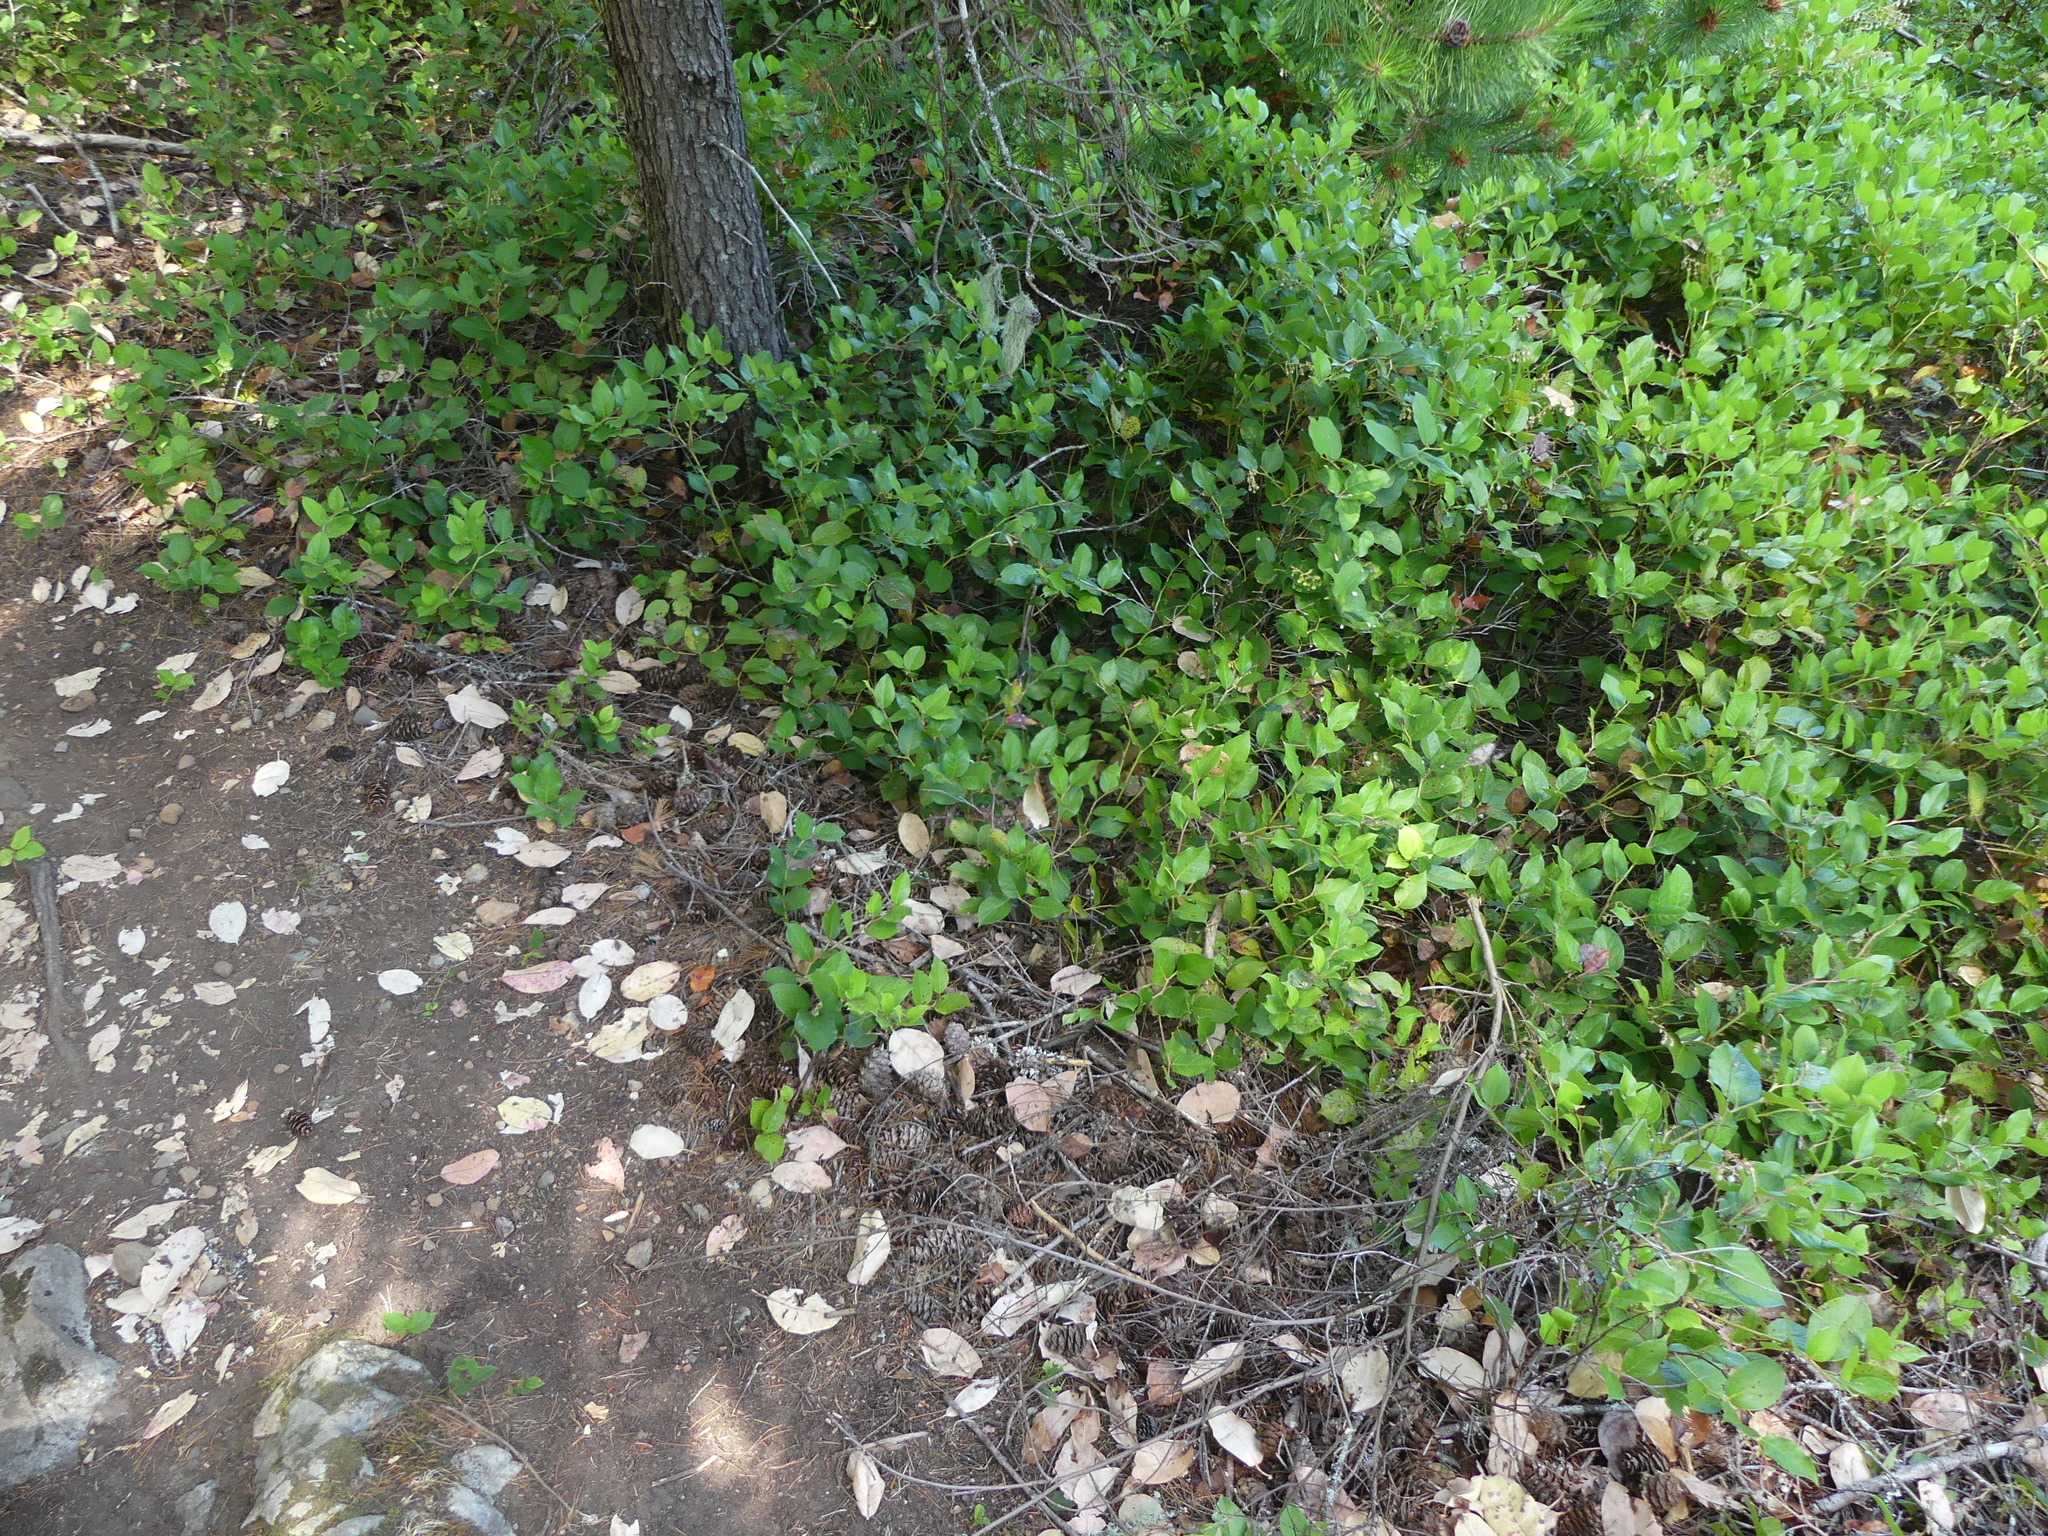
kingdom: Plantae
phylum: Tracheophyta
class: Magnoliopsida
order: Ericales
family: Ericaceae
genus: Gaultheria
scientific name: Gaultheria shallon
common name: Shallon
